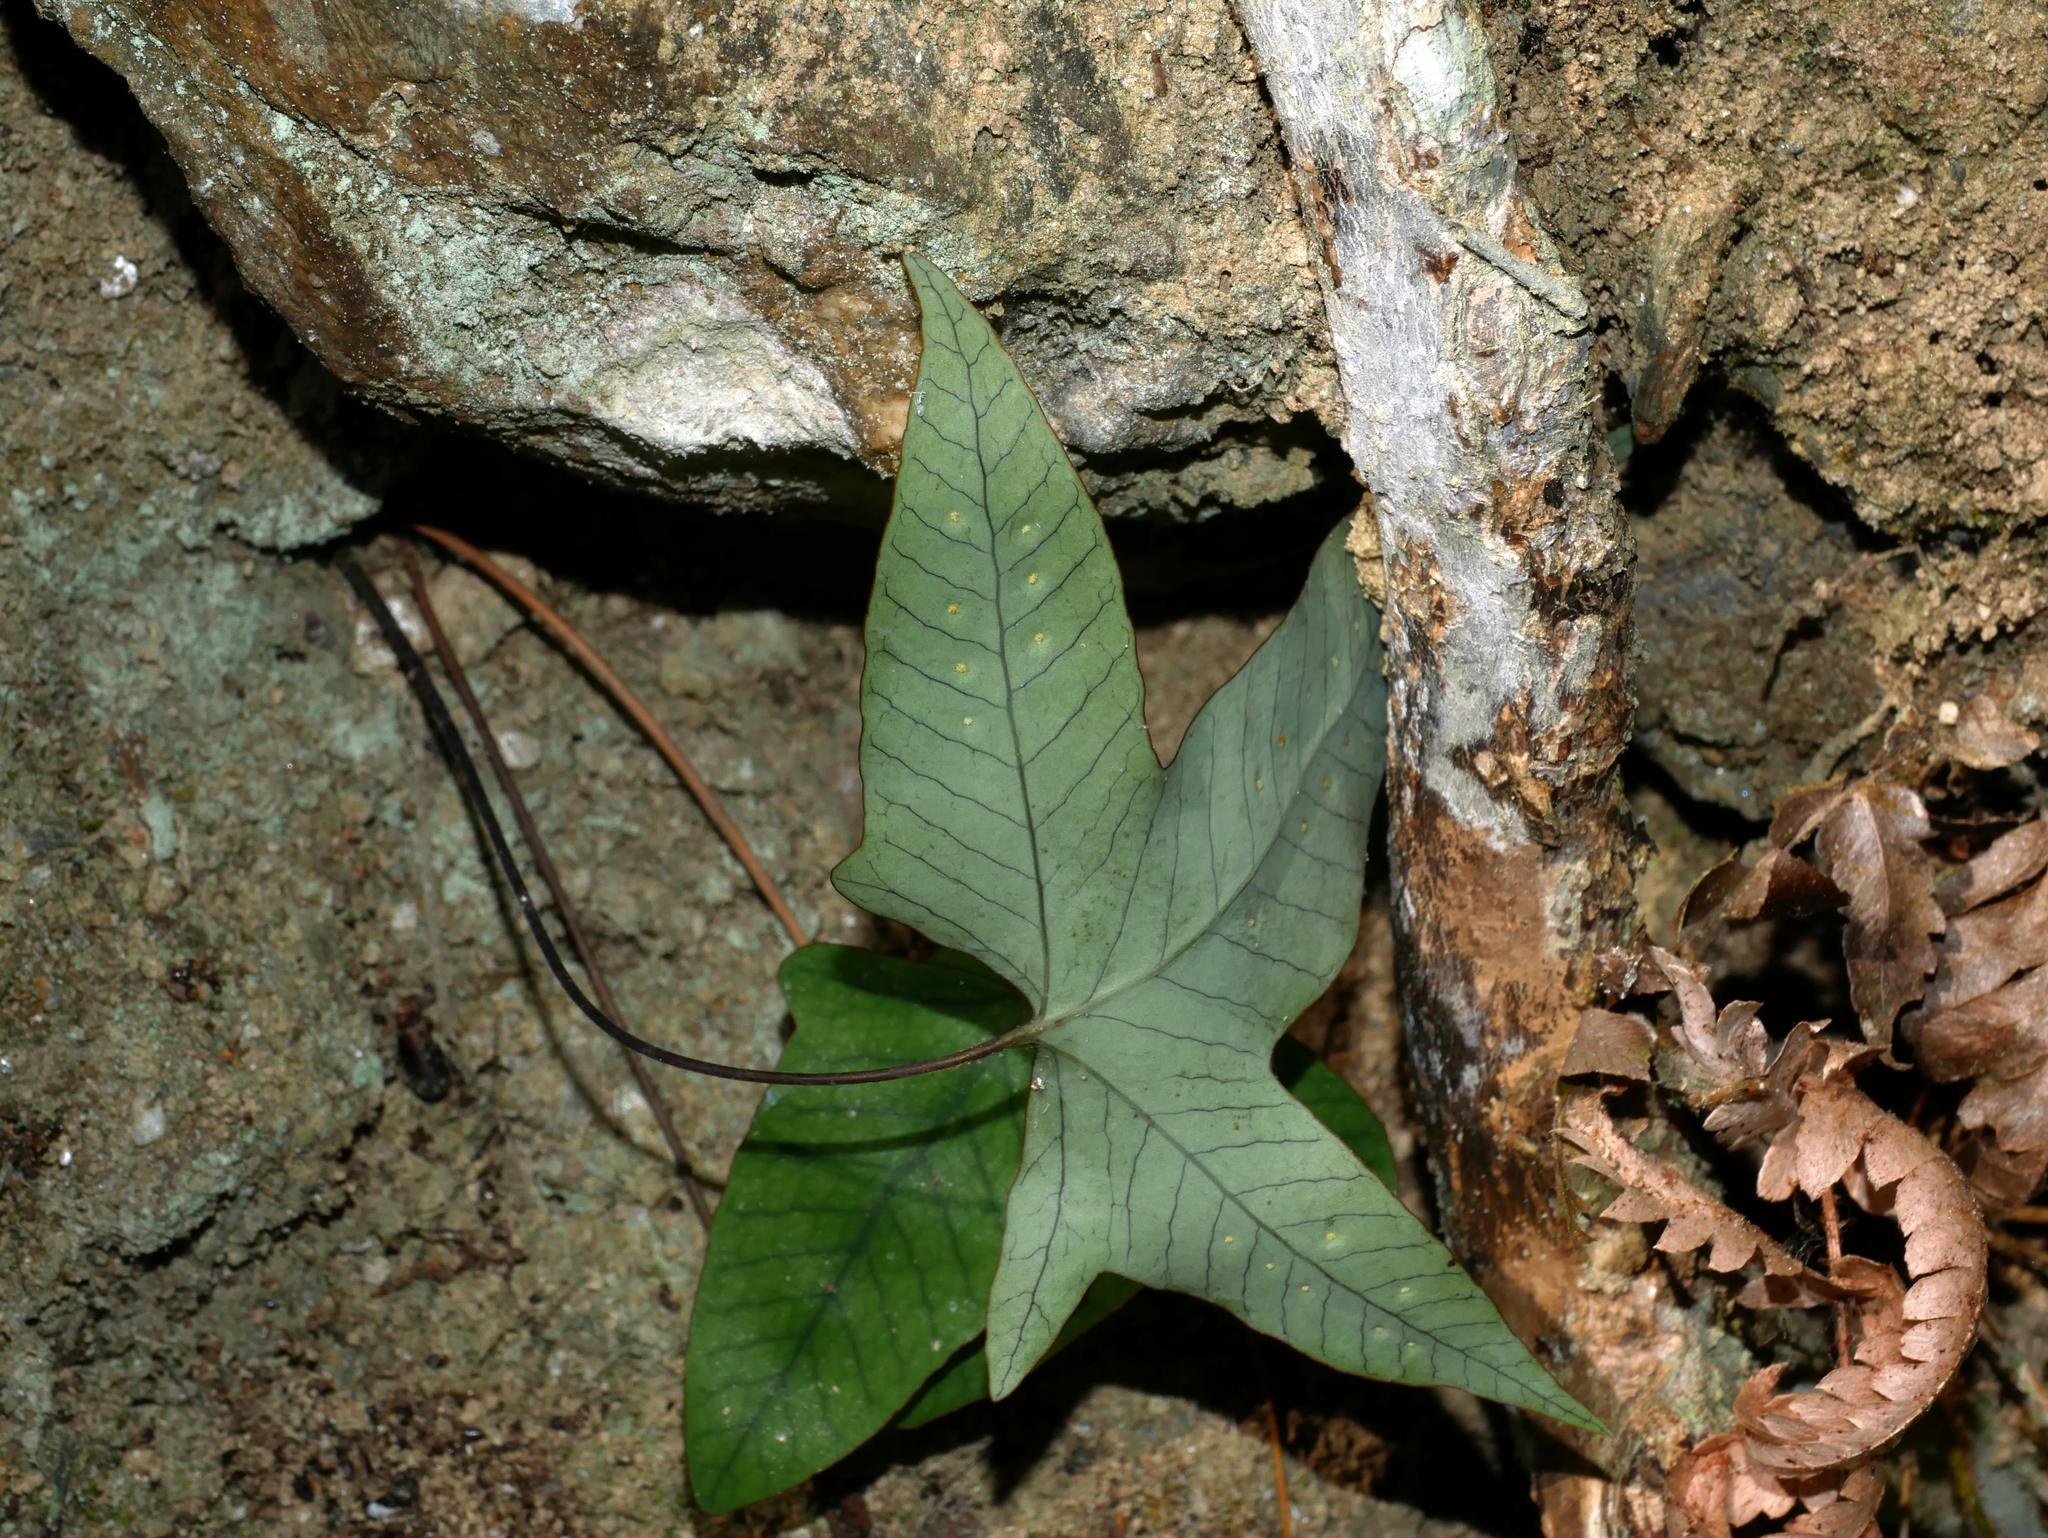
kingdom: Plantae
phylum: Tracheophyta
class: Polypodiopsida
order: Polypodiales
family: Polypodiaceae
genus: Selliguea
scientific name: Selliguea hastata
